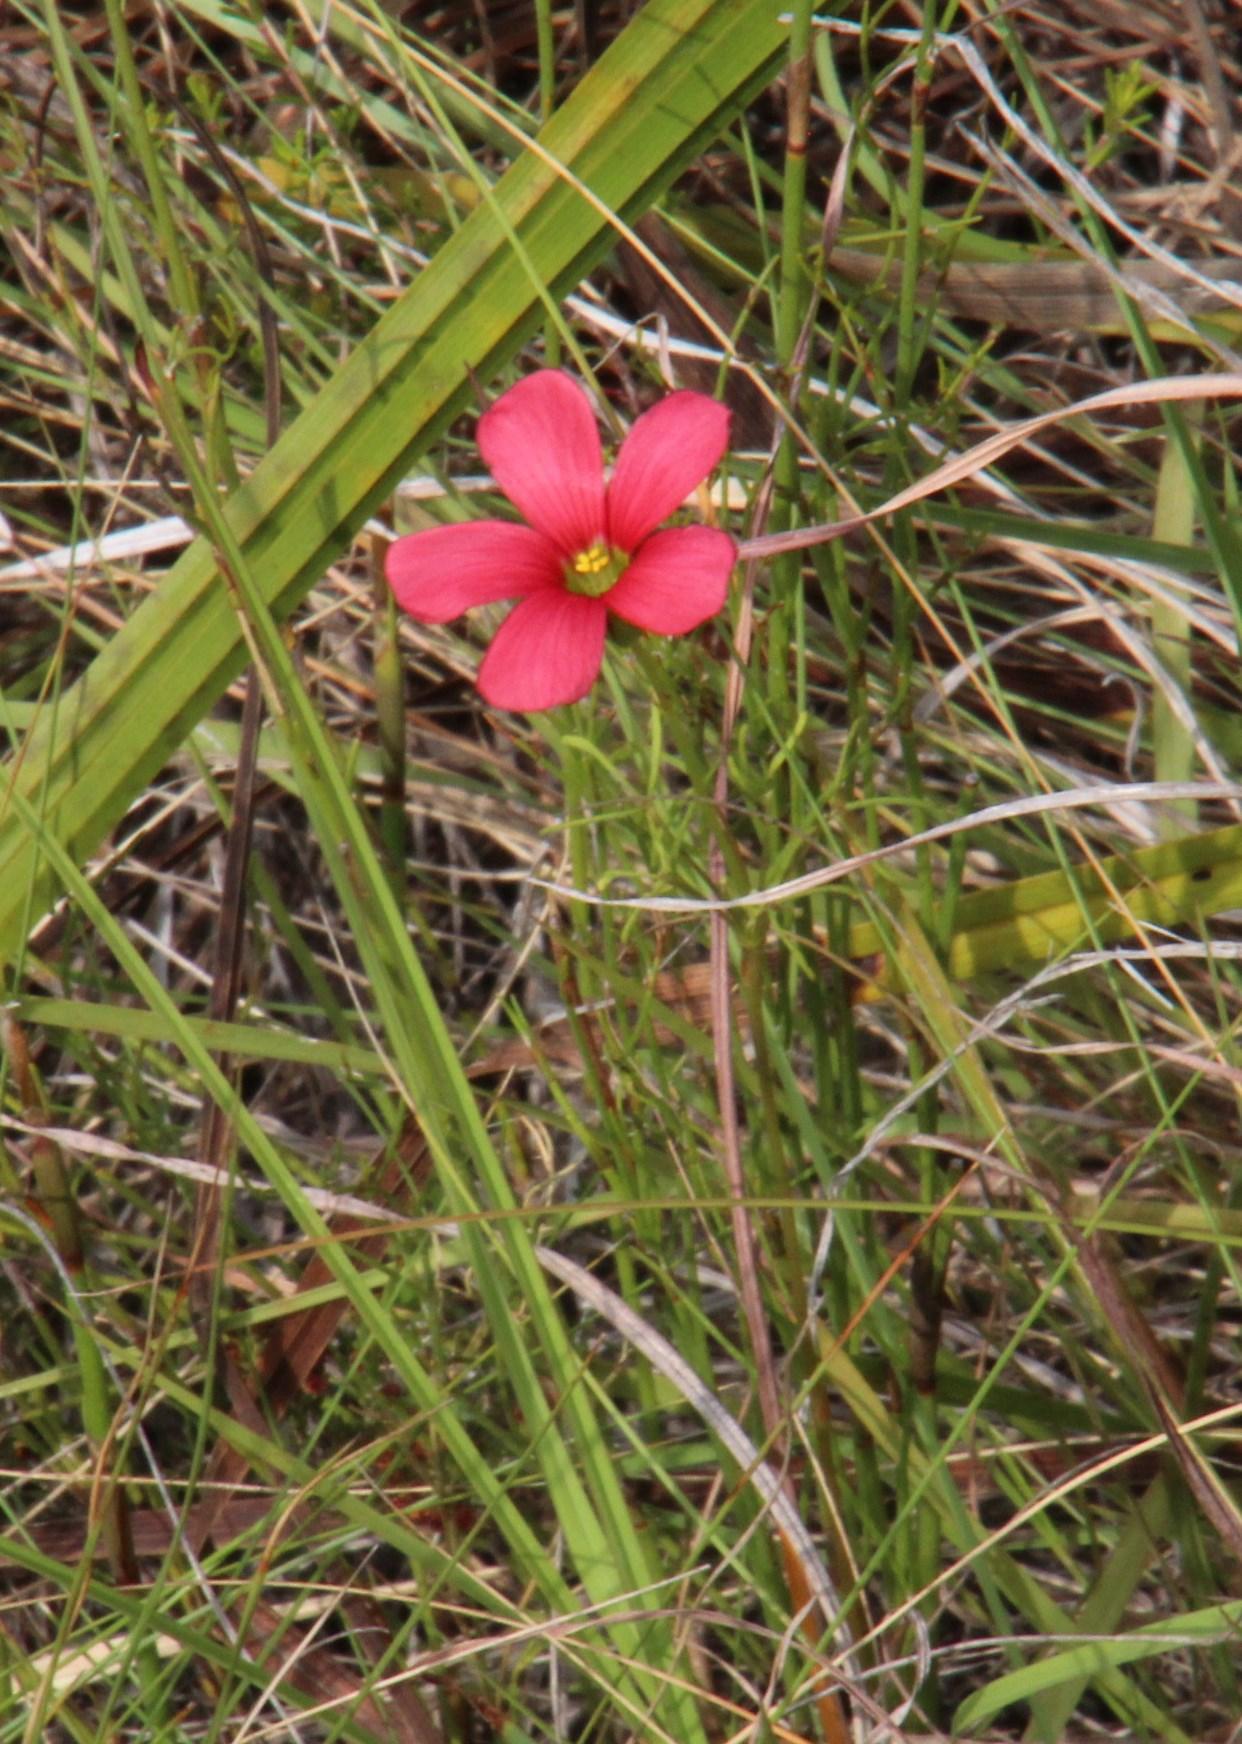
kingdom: Plantae
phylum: Tracheophyta
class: Magnoliopsida
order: Oxalidales
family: Oxalidaceae
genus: Oxalis
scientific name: Oxalis pendulifolia
